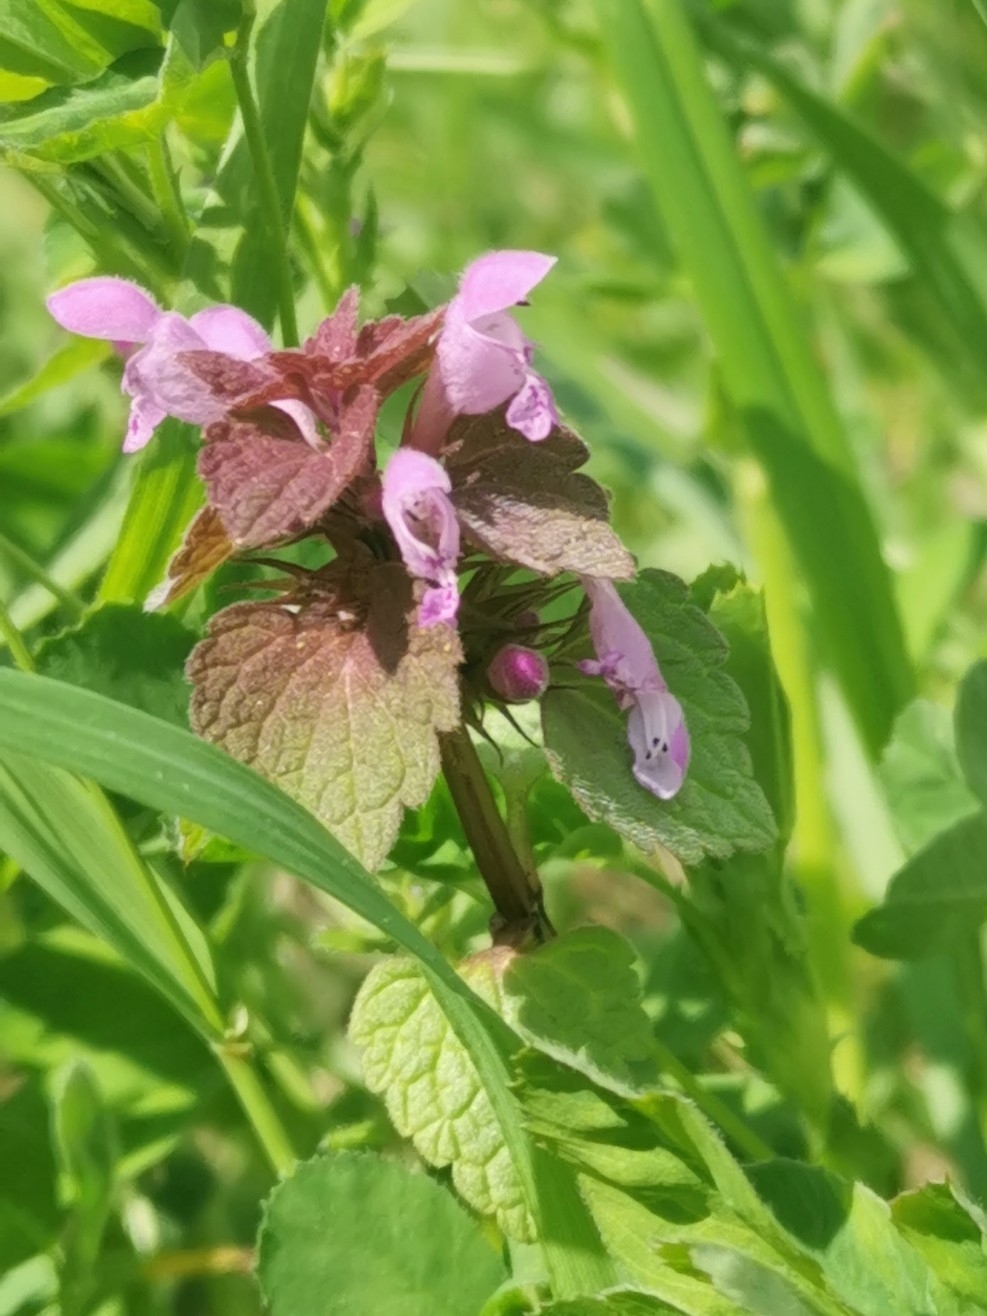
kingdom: Plantae
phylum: Tracheophyta
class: Magnoliopsida
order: Lamiales
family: Lamiaceae
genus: Lamium
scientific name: Lamium purpureum
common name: Red dead-nettle
